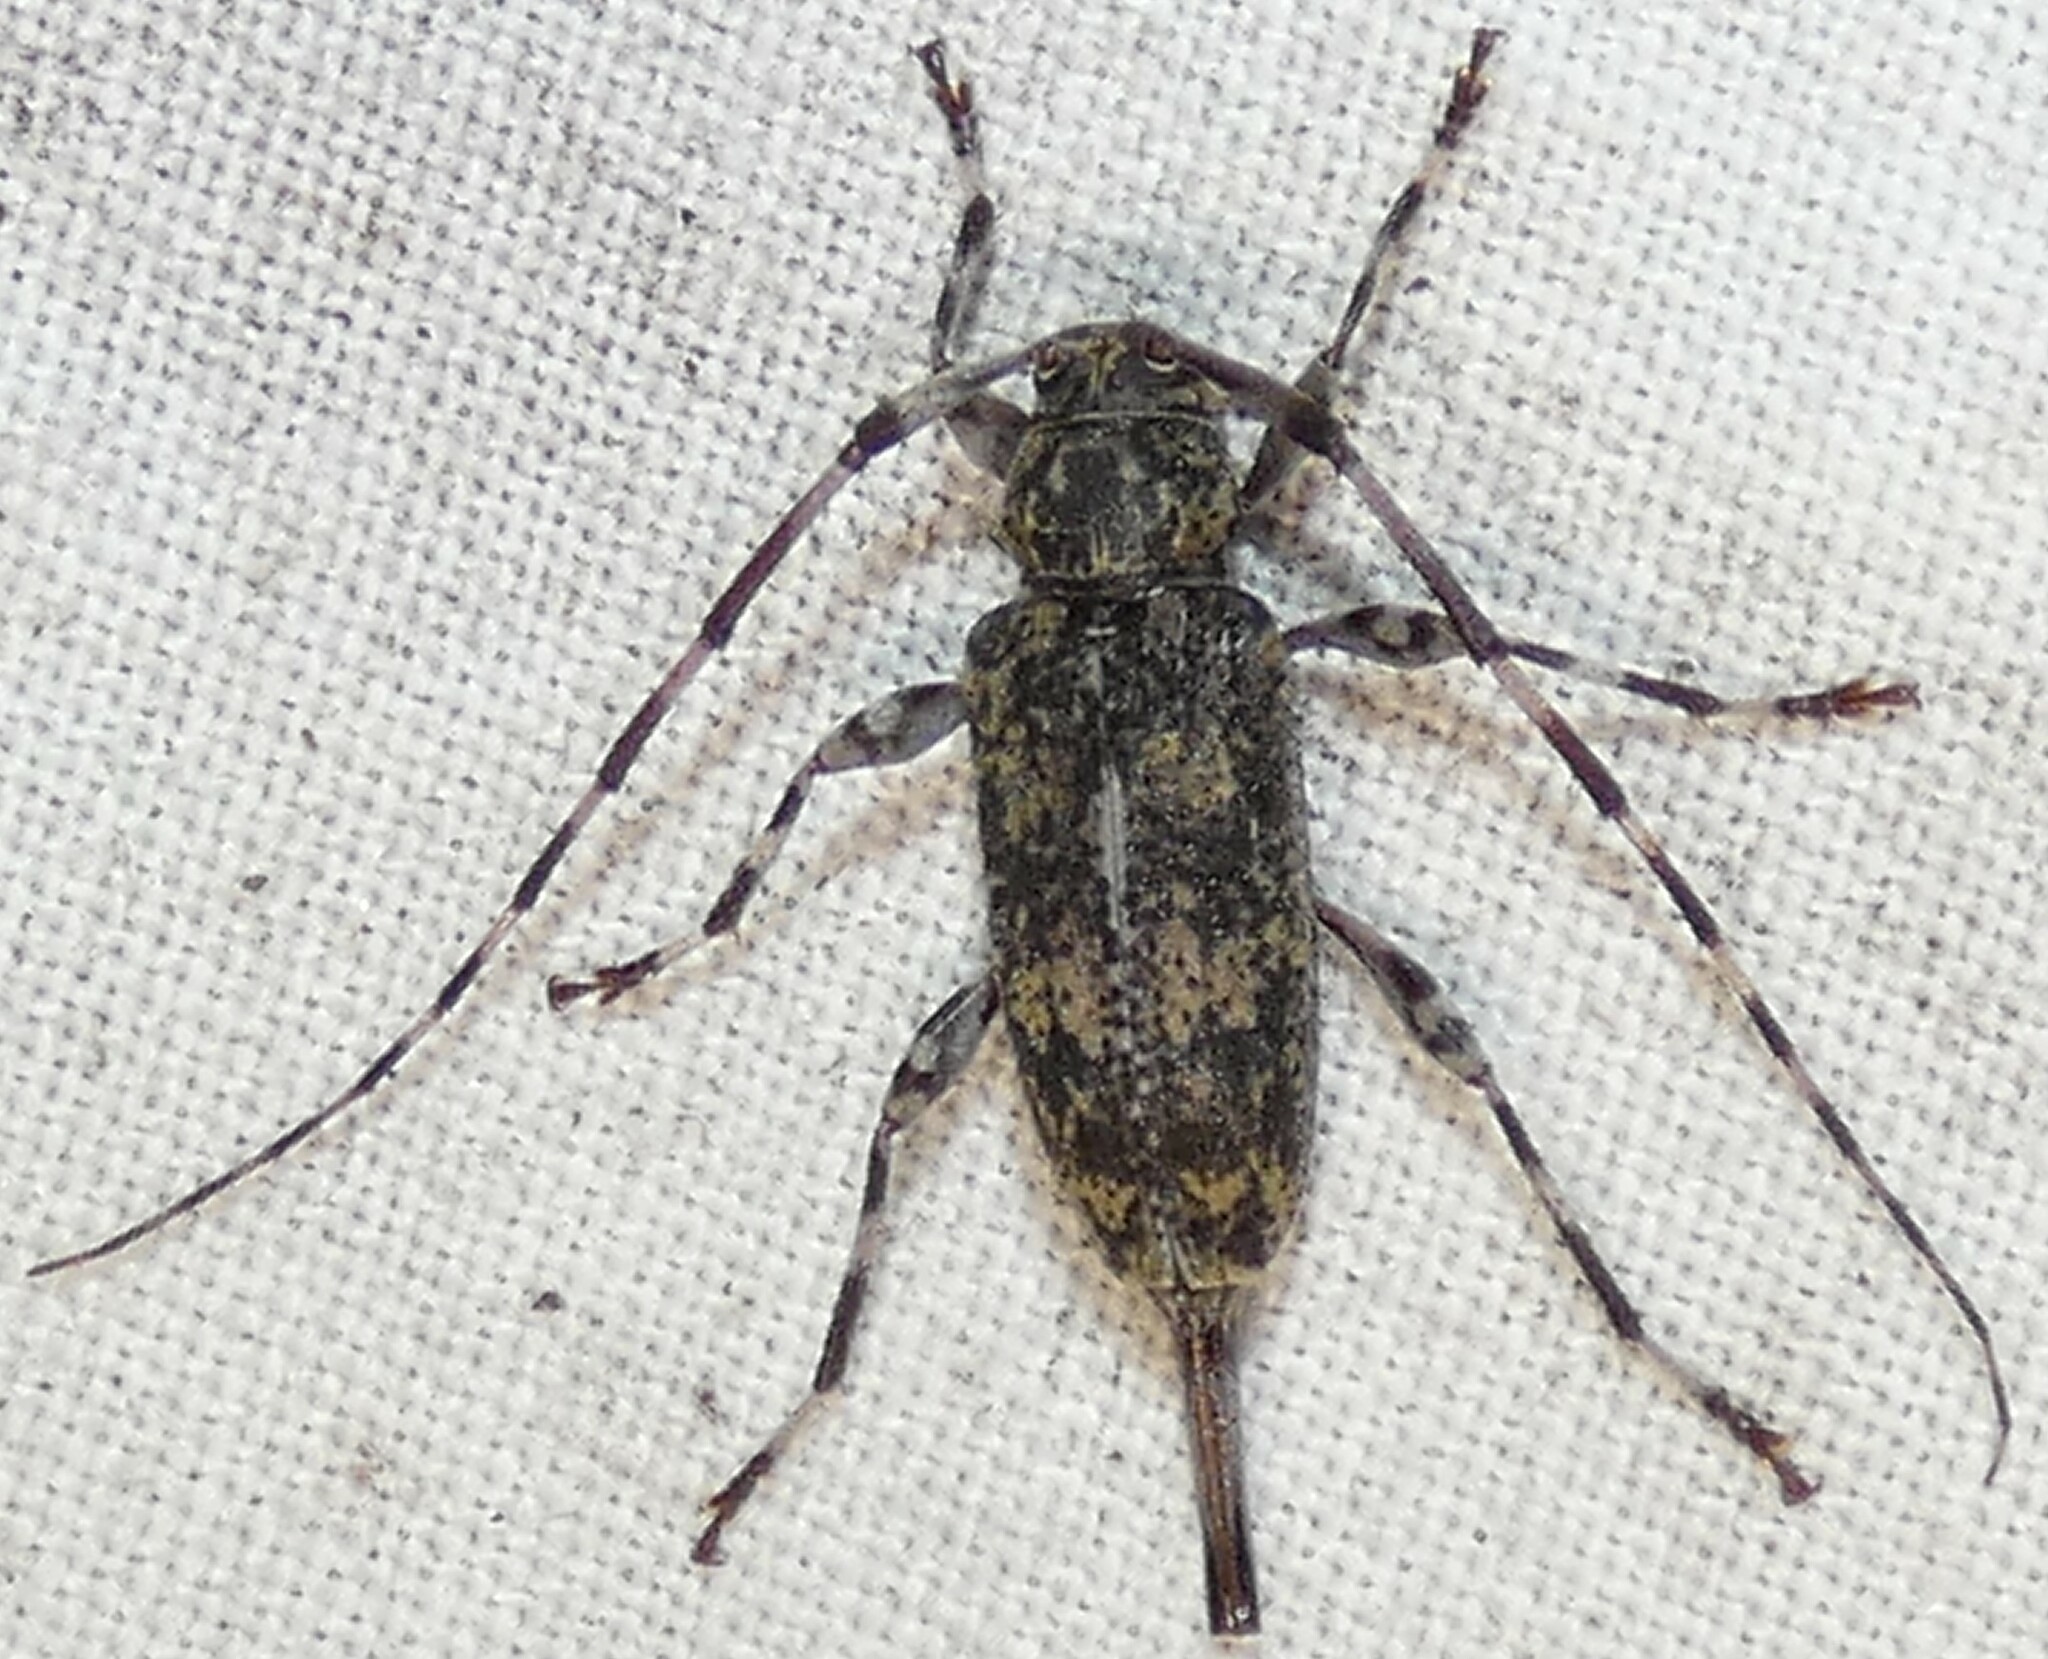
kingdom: Animalia
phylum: Arthropoda
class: Insecta
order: Coleoptera
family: Cerambycidae
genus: Graphisurus
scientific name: Graphisurus fasciatus
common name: Banded graphisurus
